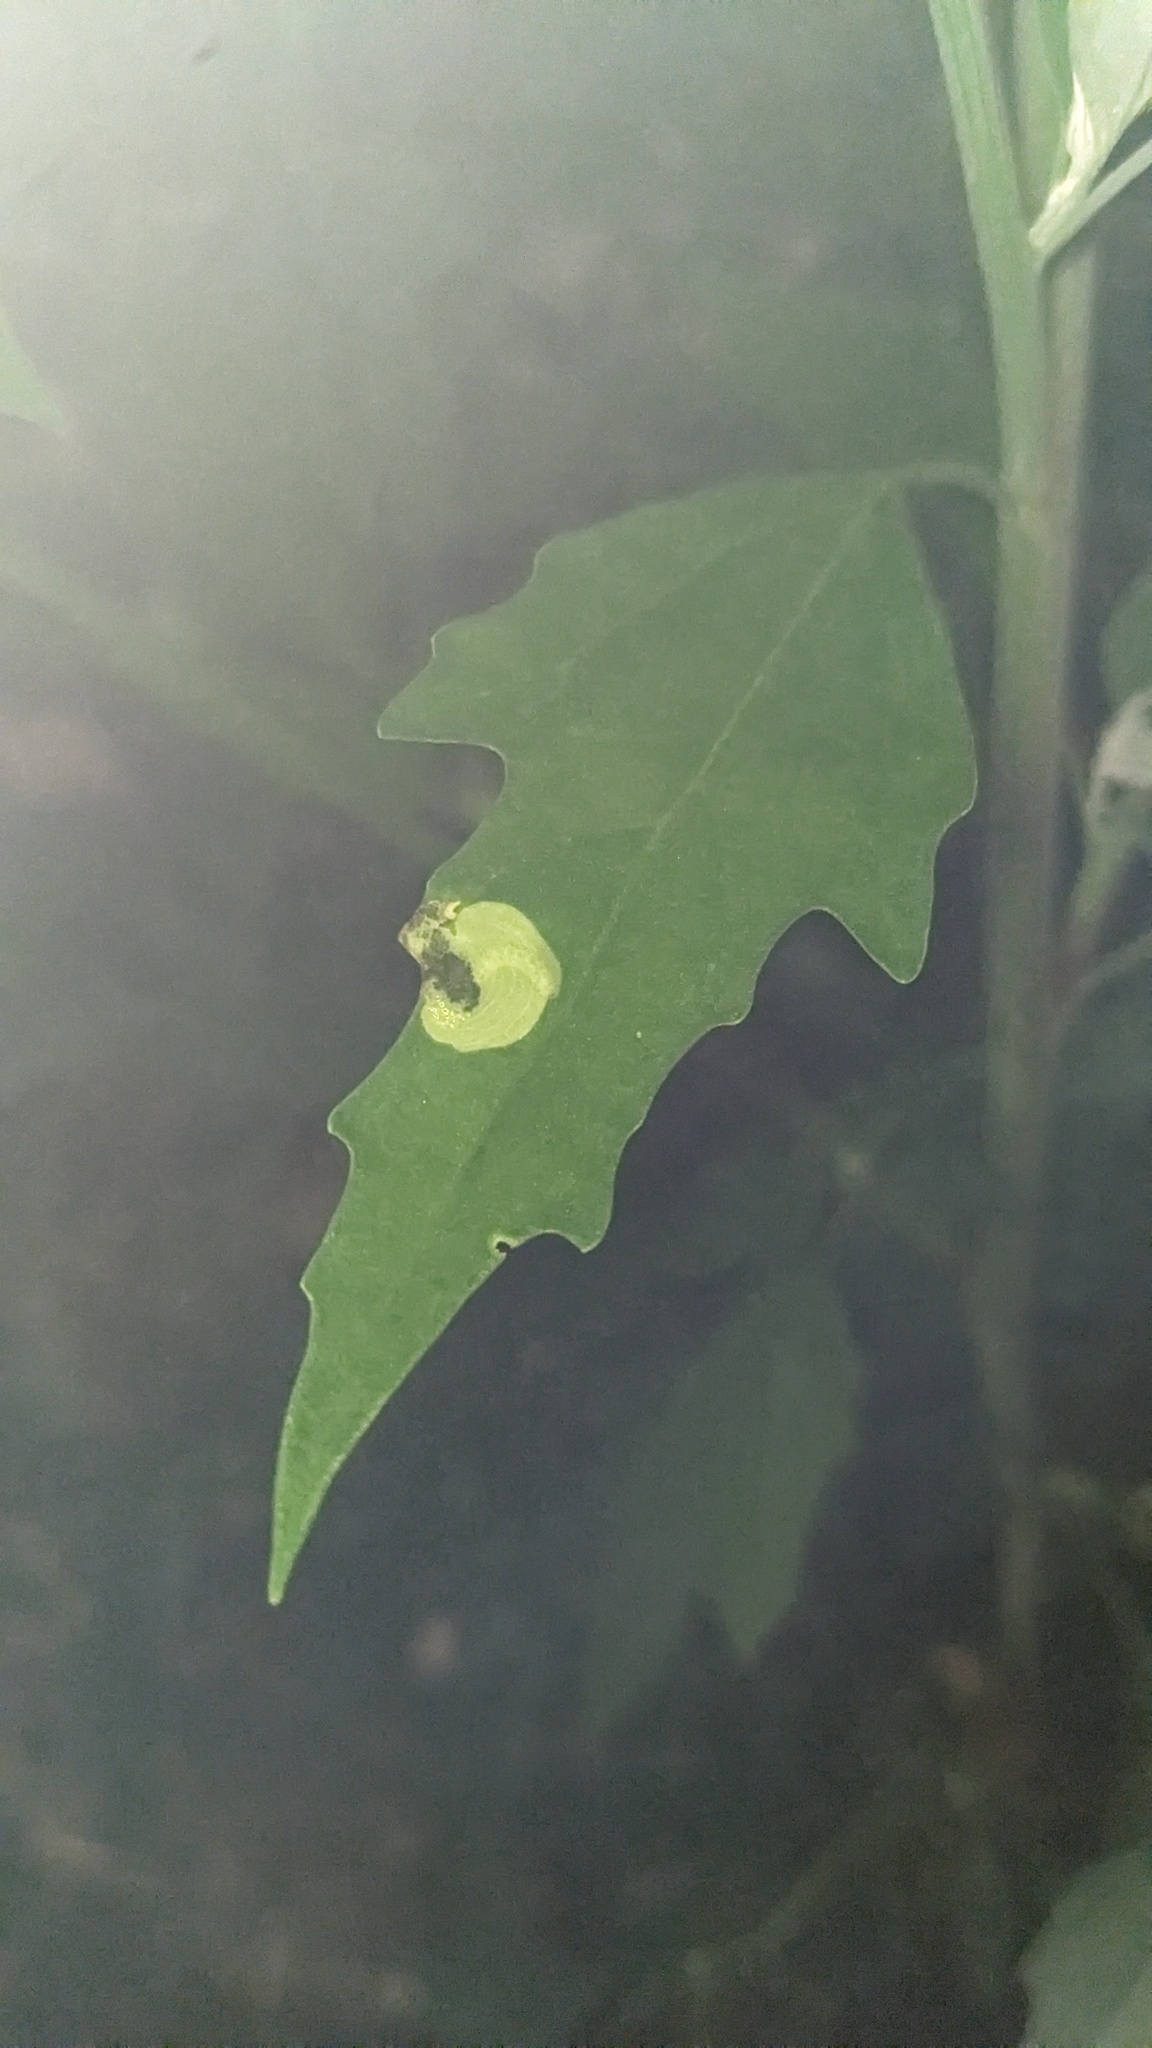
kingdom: Animalia
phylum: Arthropoda
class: Insecta
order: Lepidoptera
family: Gelechiidae
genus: Chrysoesthia
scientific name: Chrysoesthia sexguttella
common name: Moth
